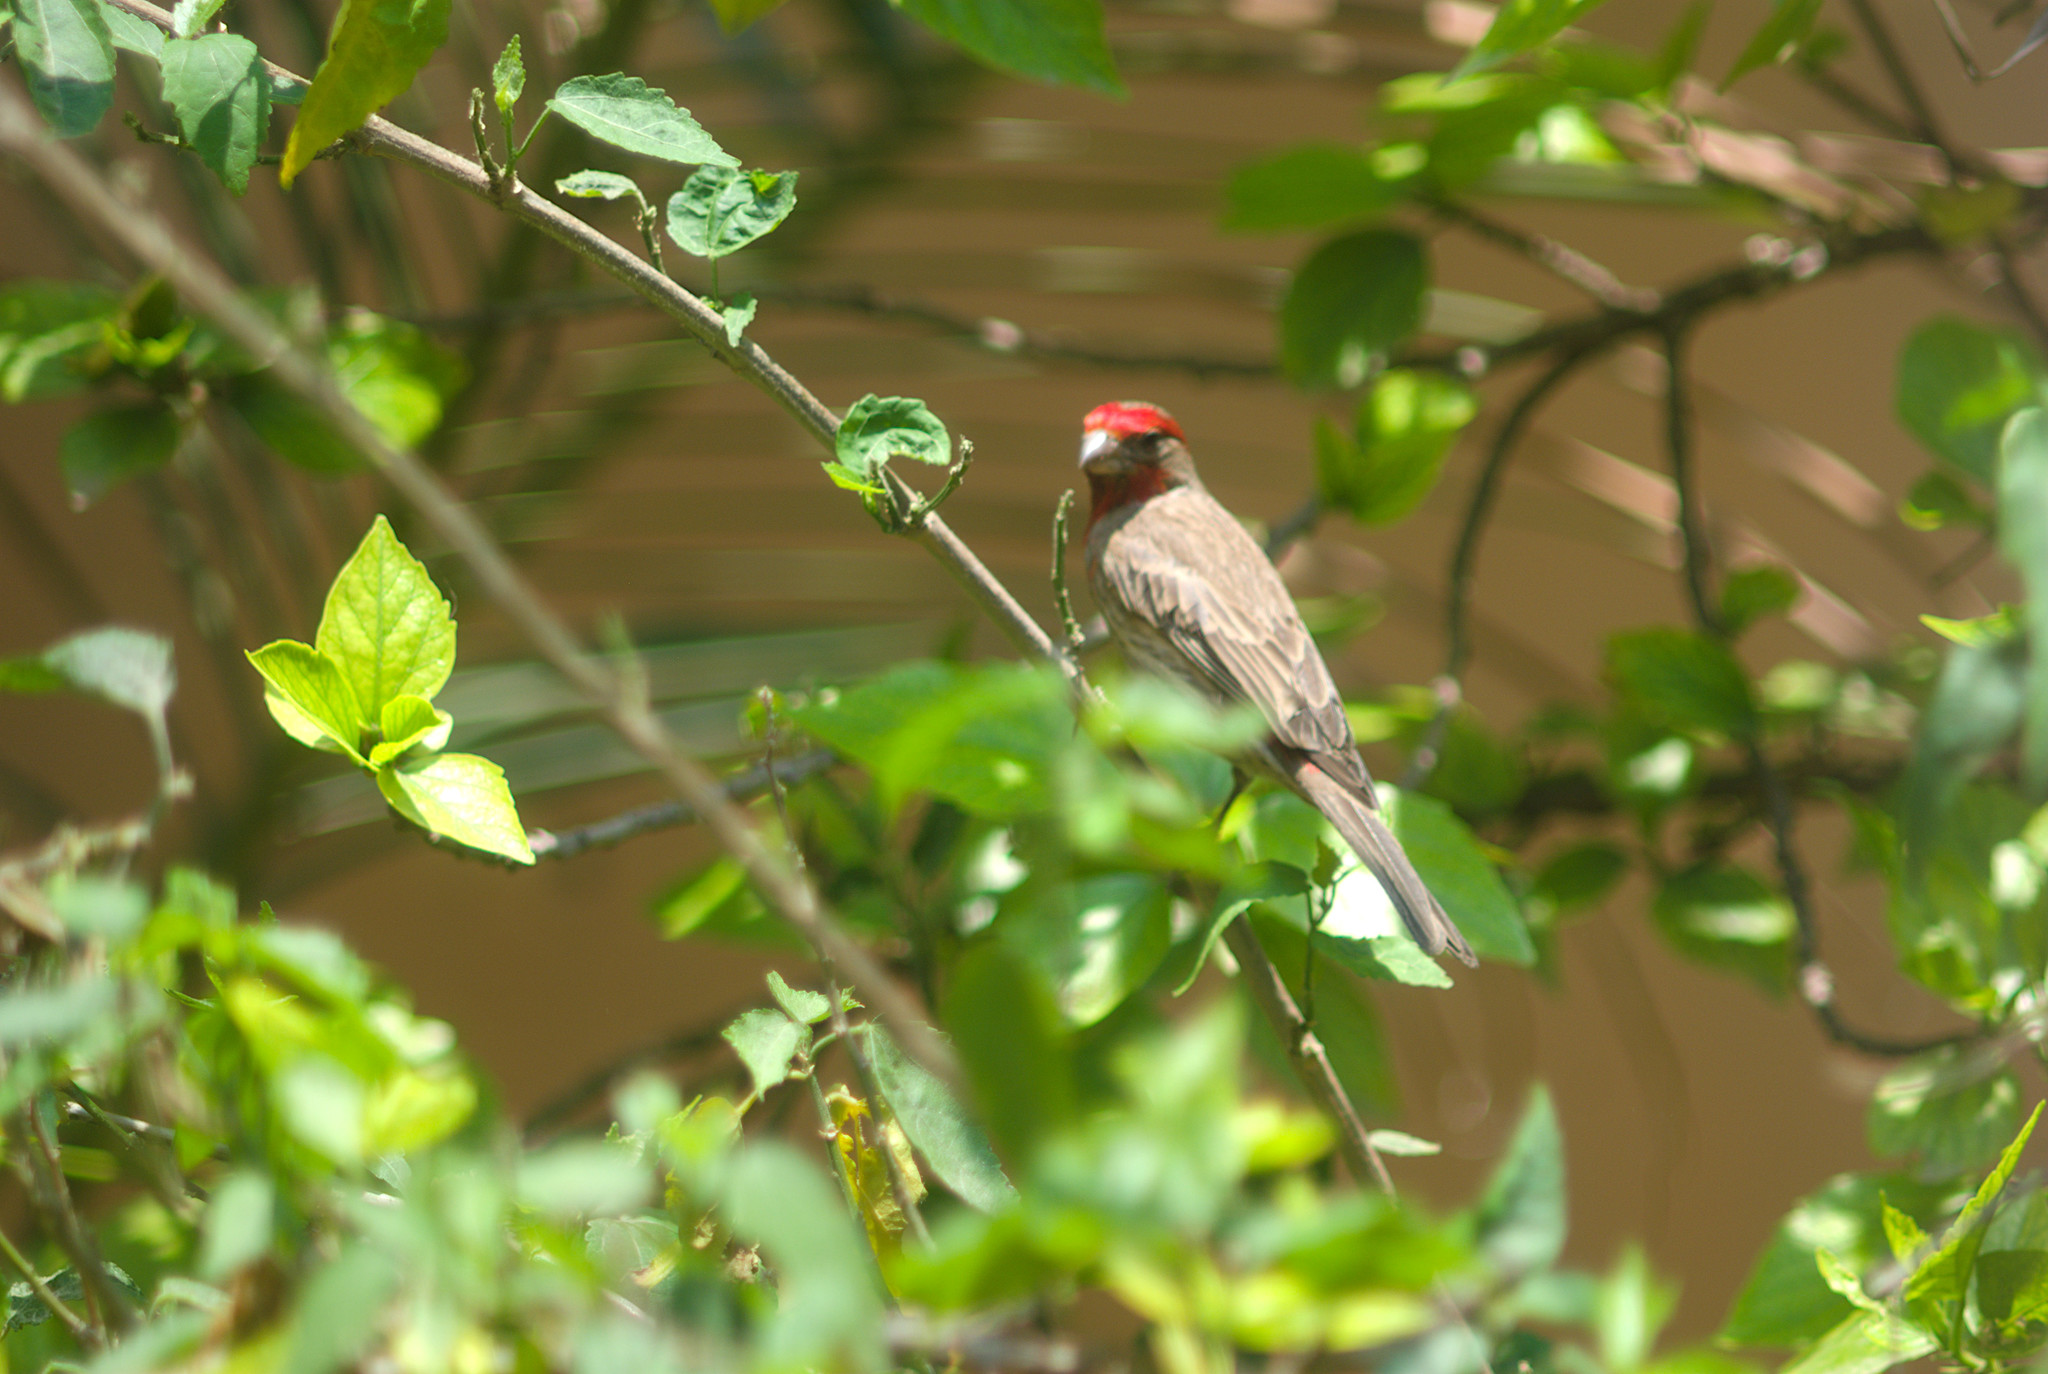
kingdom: Animalia
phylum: Chordata
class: Aves
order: Passeriformes
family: Fringillidae
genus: Haemorhous
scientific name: Haemorhous mexicanus
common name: House finch
